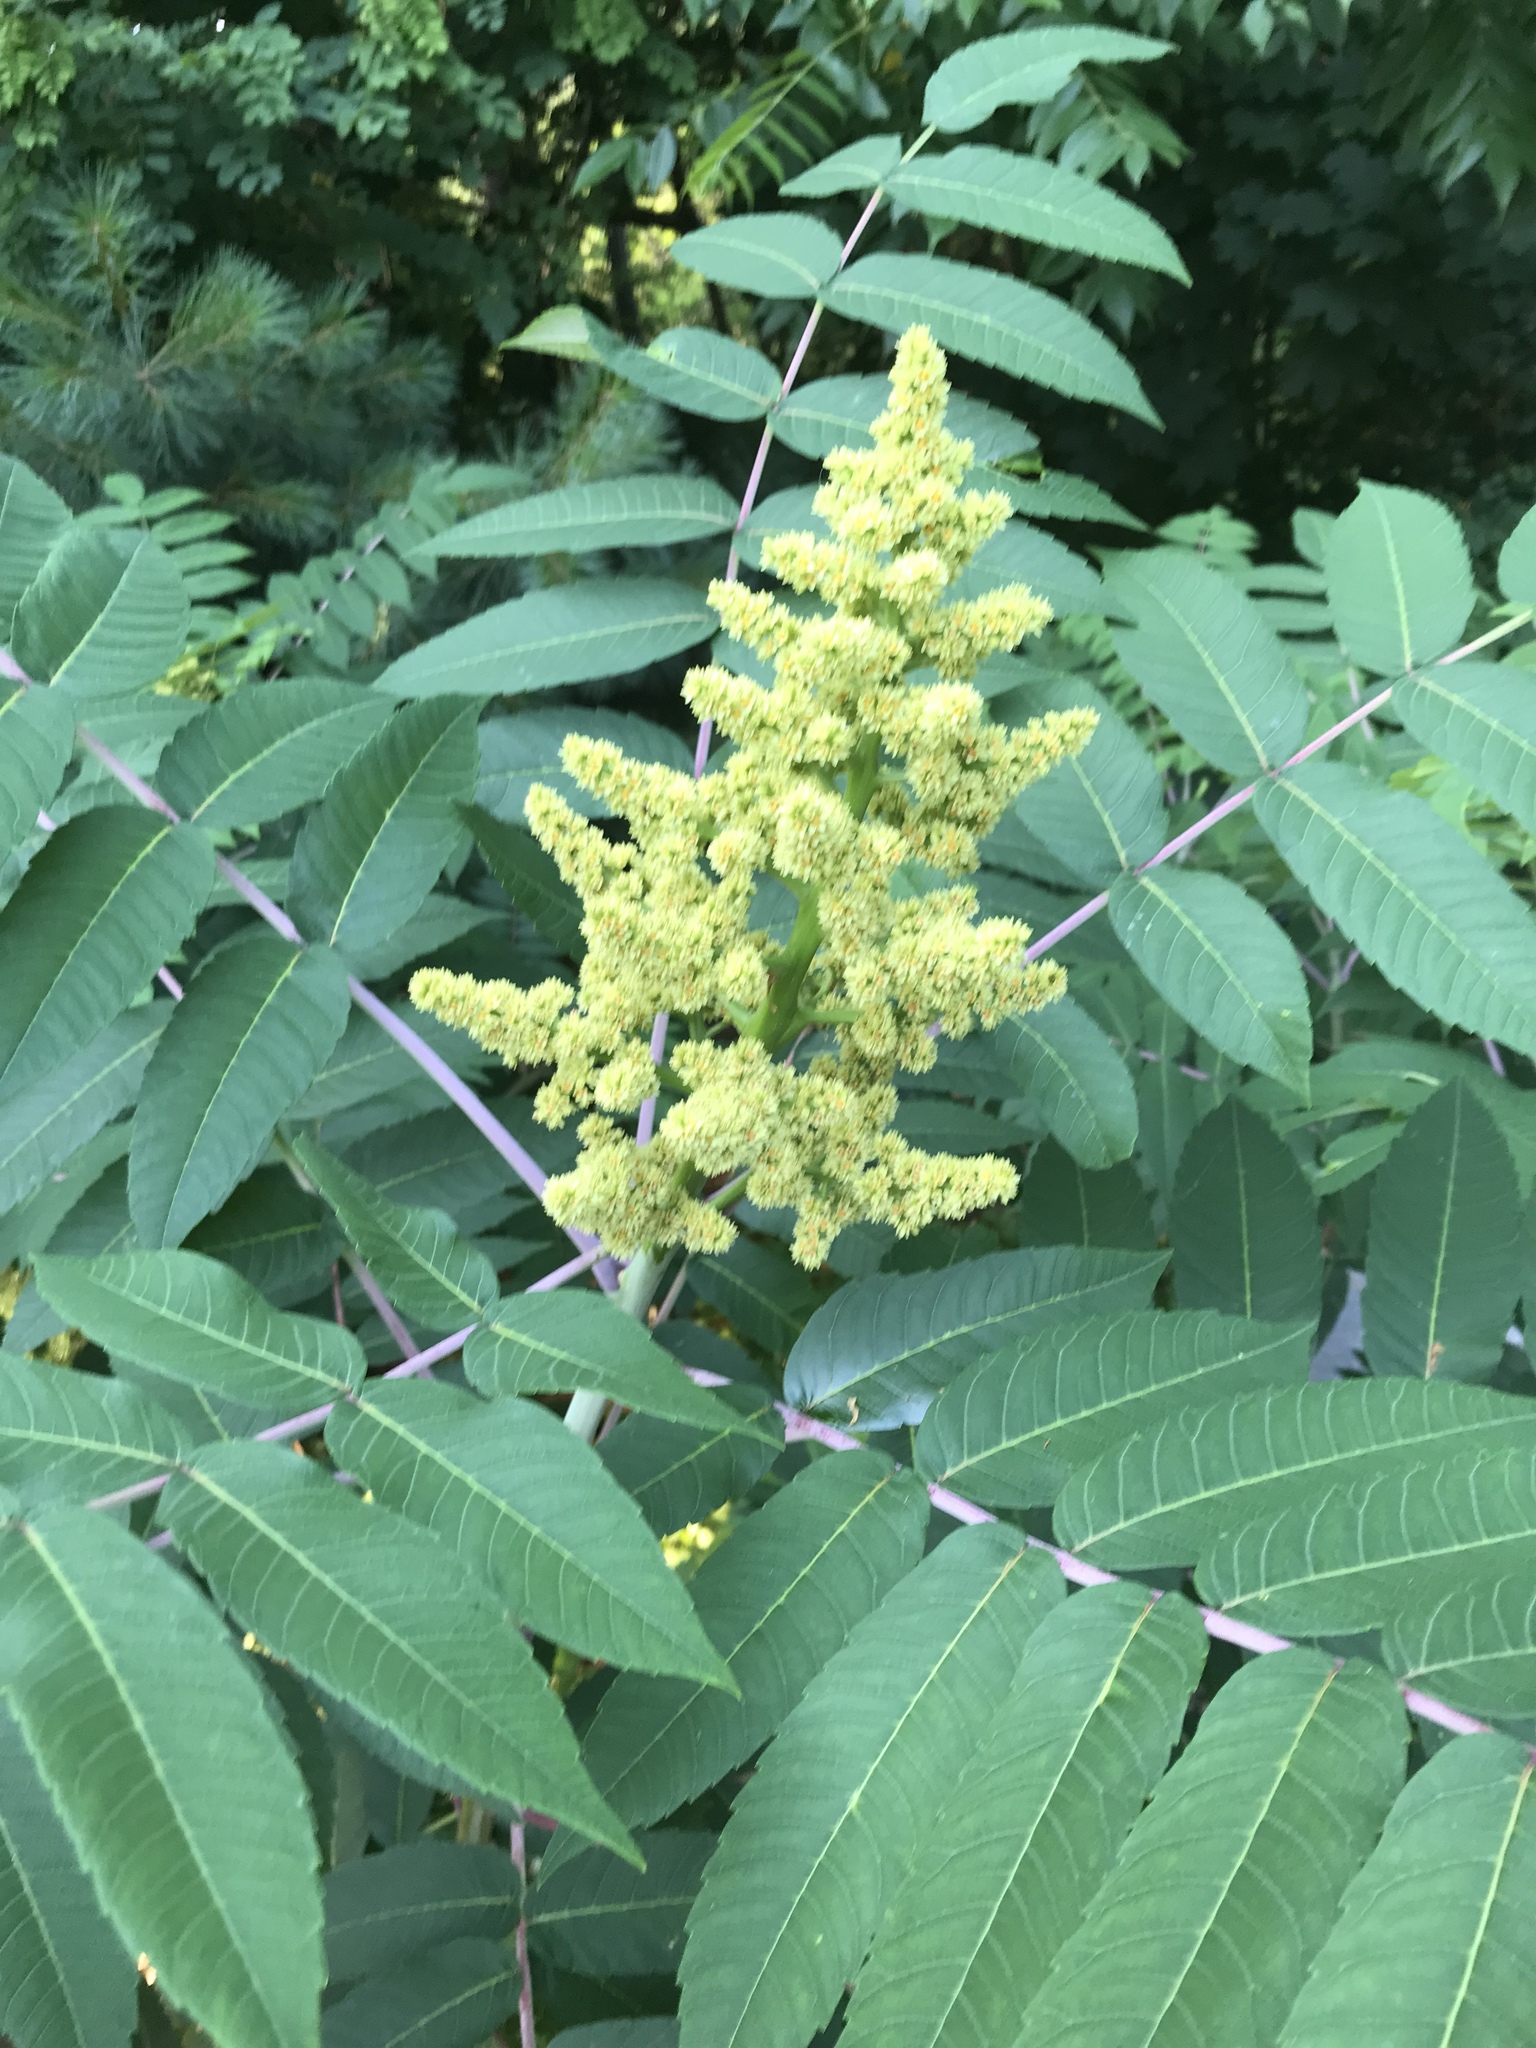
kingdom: Plantae
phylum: Tracheophyta
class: Magnoliopsida
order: Sapindales
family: Anacardiaceae
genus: Rhus
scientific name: Rhus glabra
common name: Scarlet sumac
